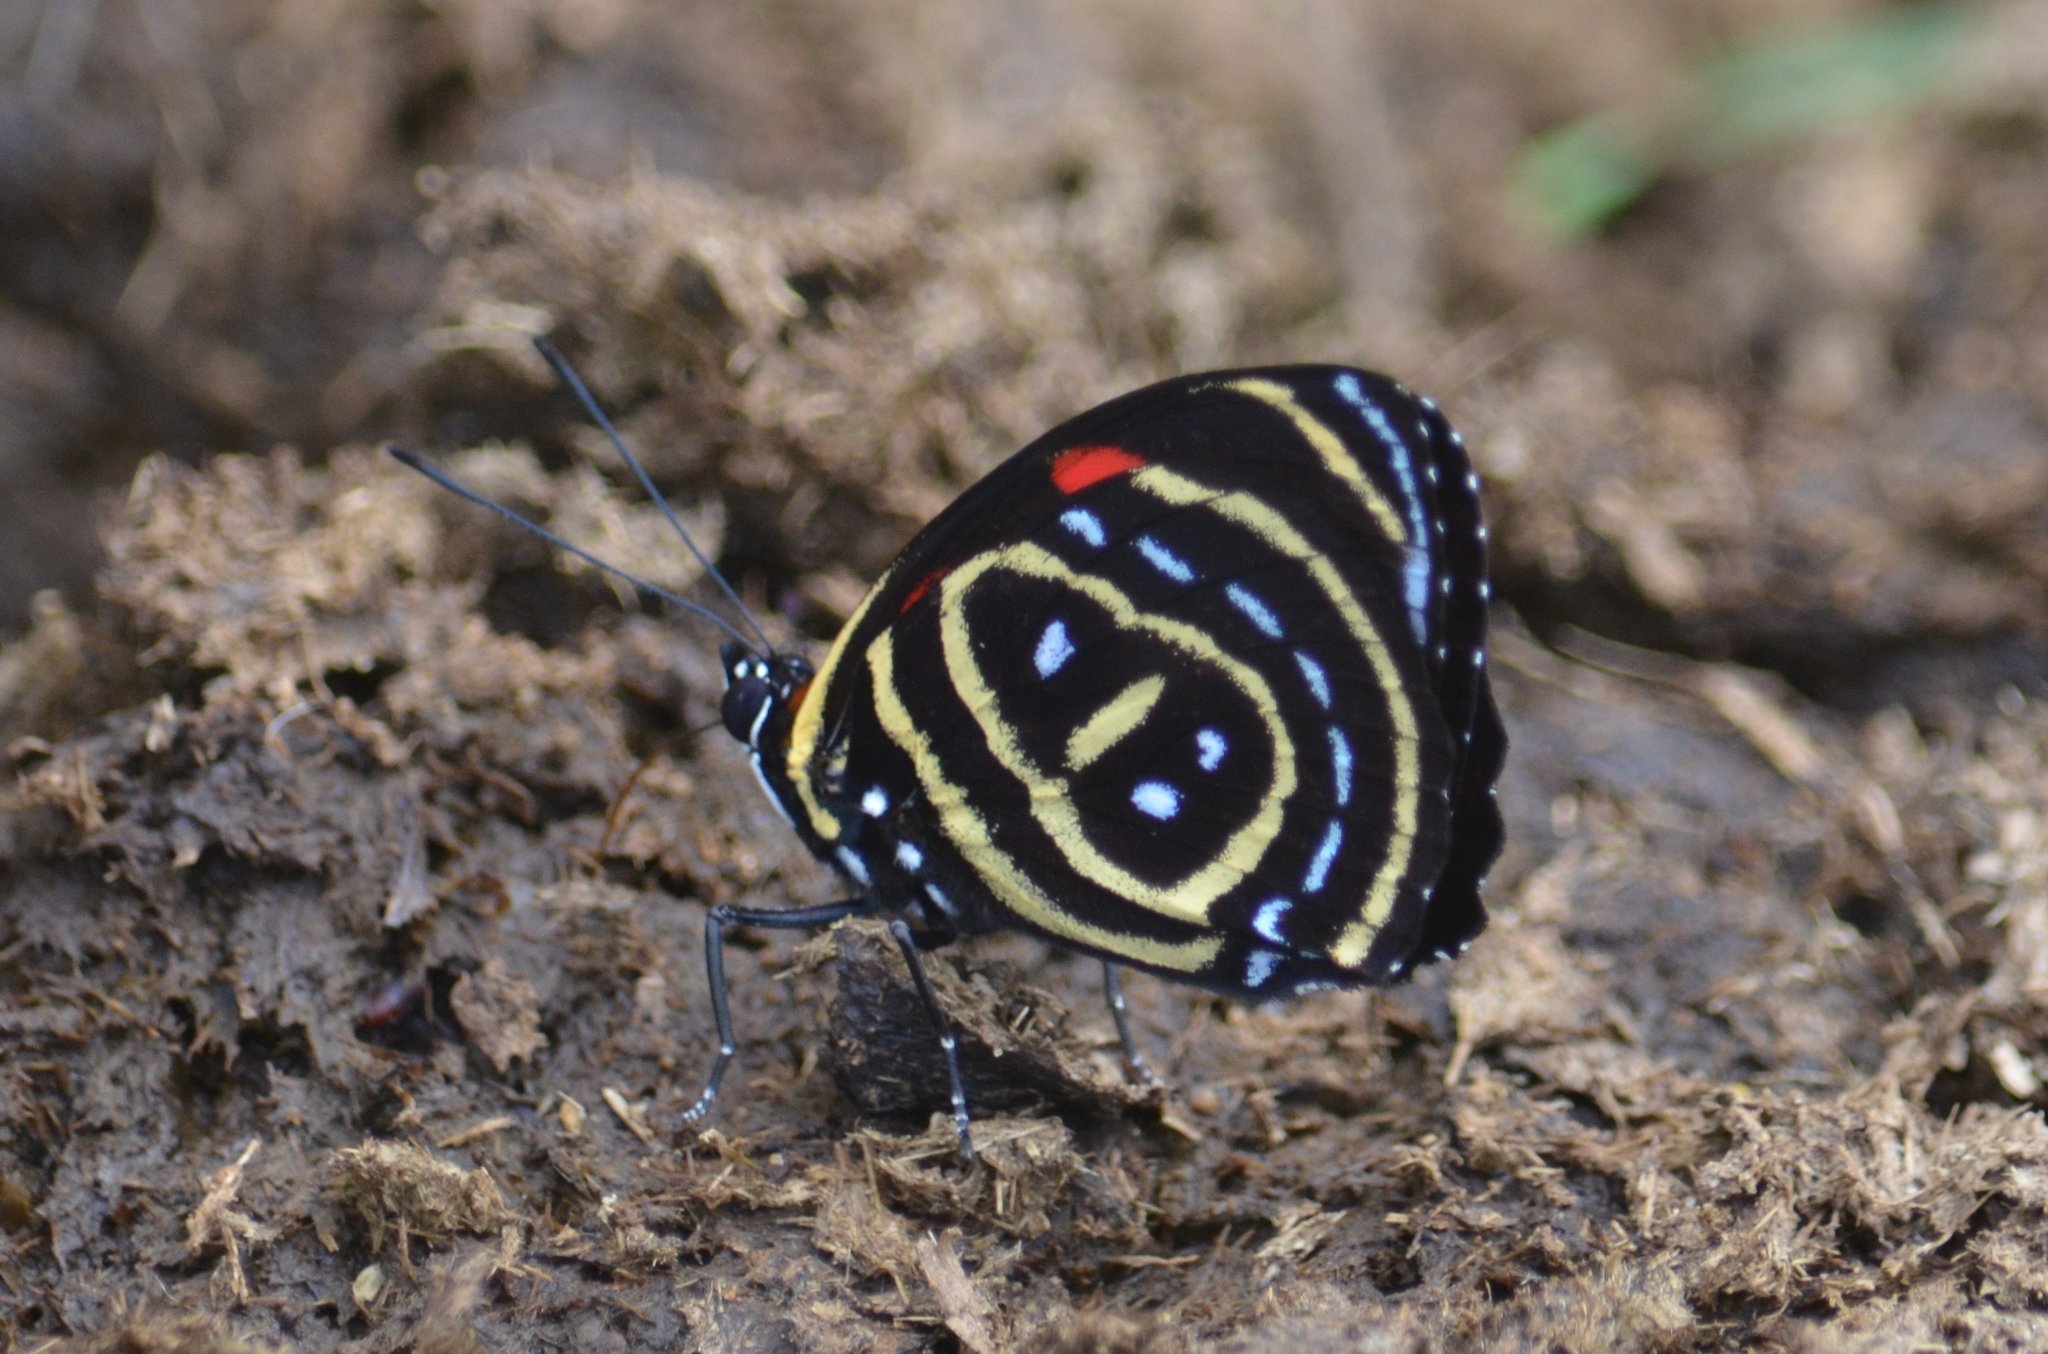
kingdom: Animalia
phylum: Arthropoda
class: Insecta
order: Lepidoptera
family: Nymphalidae
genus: Catagramma
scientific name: Catagramma astarte
